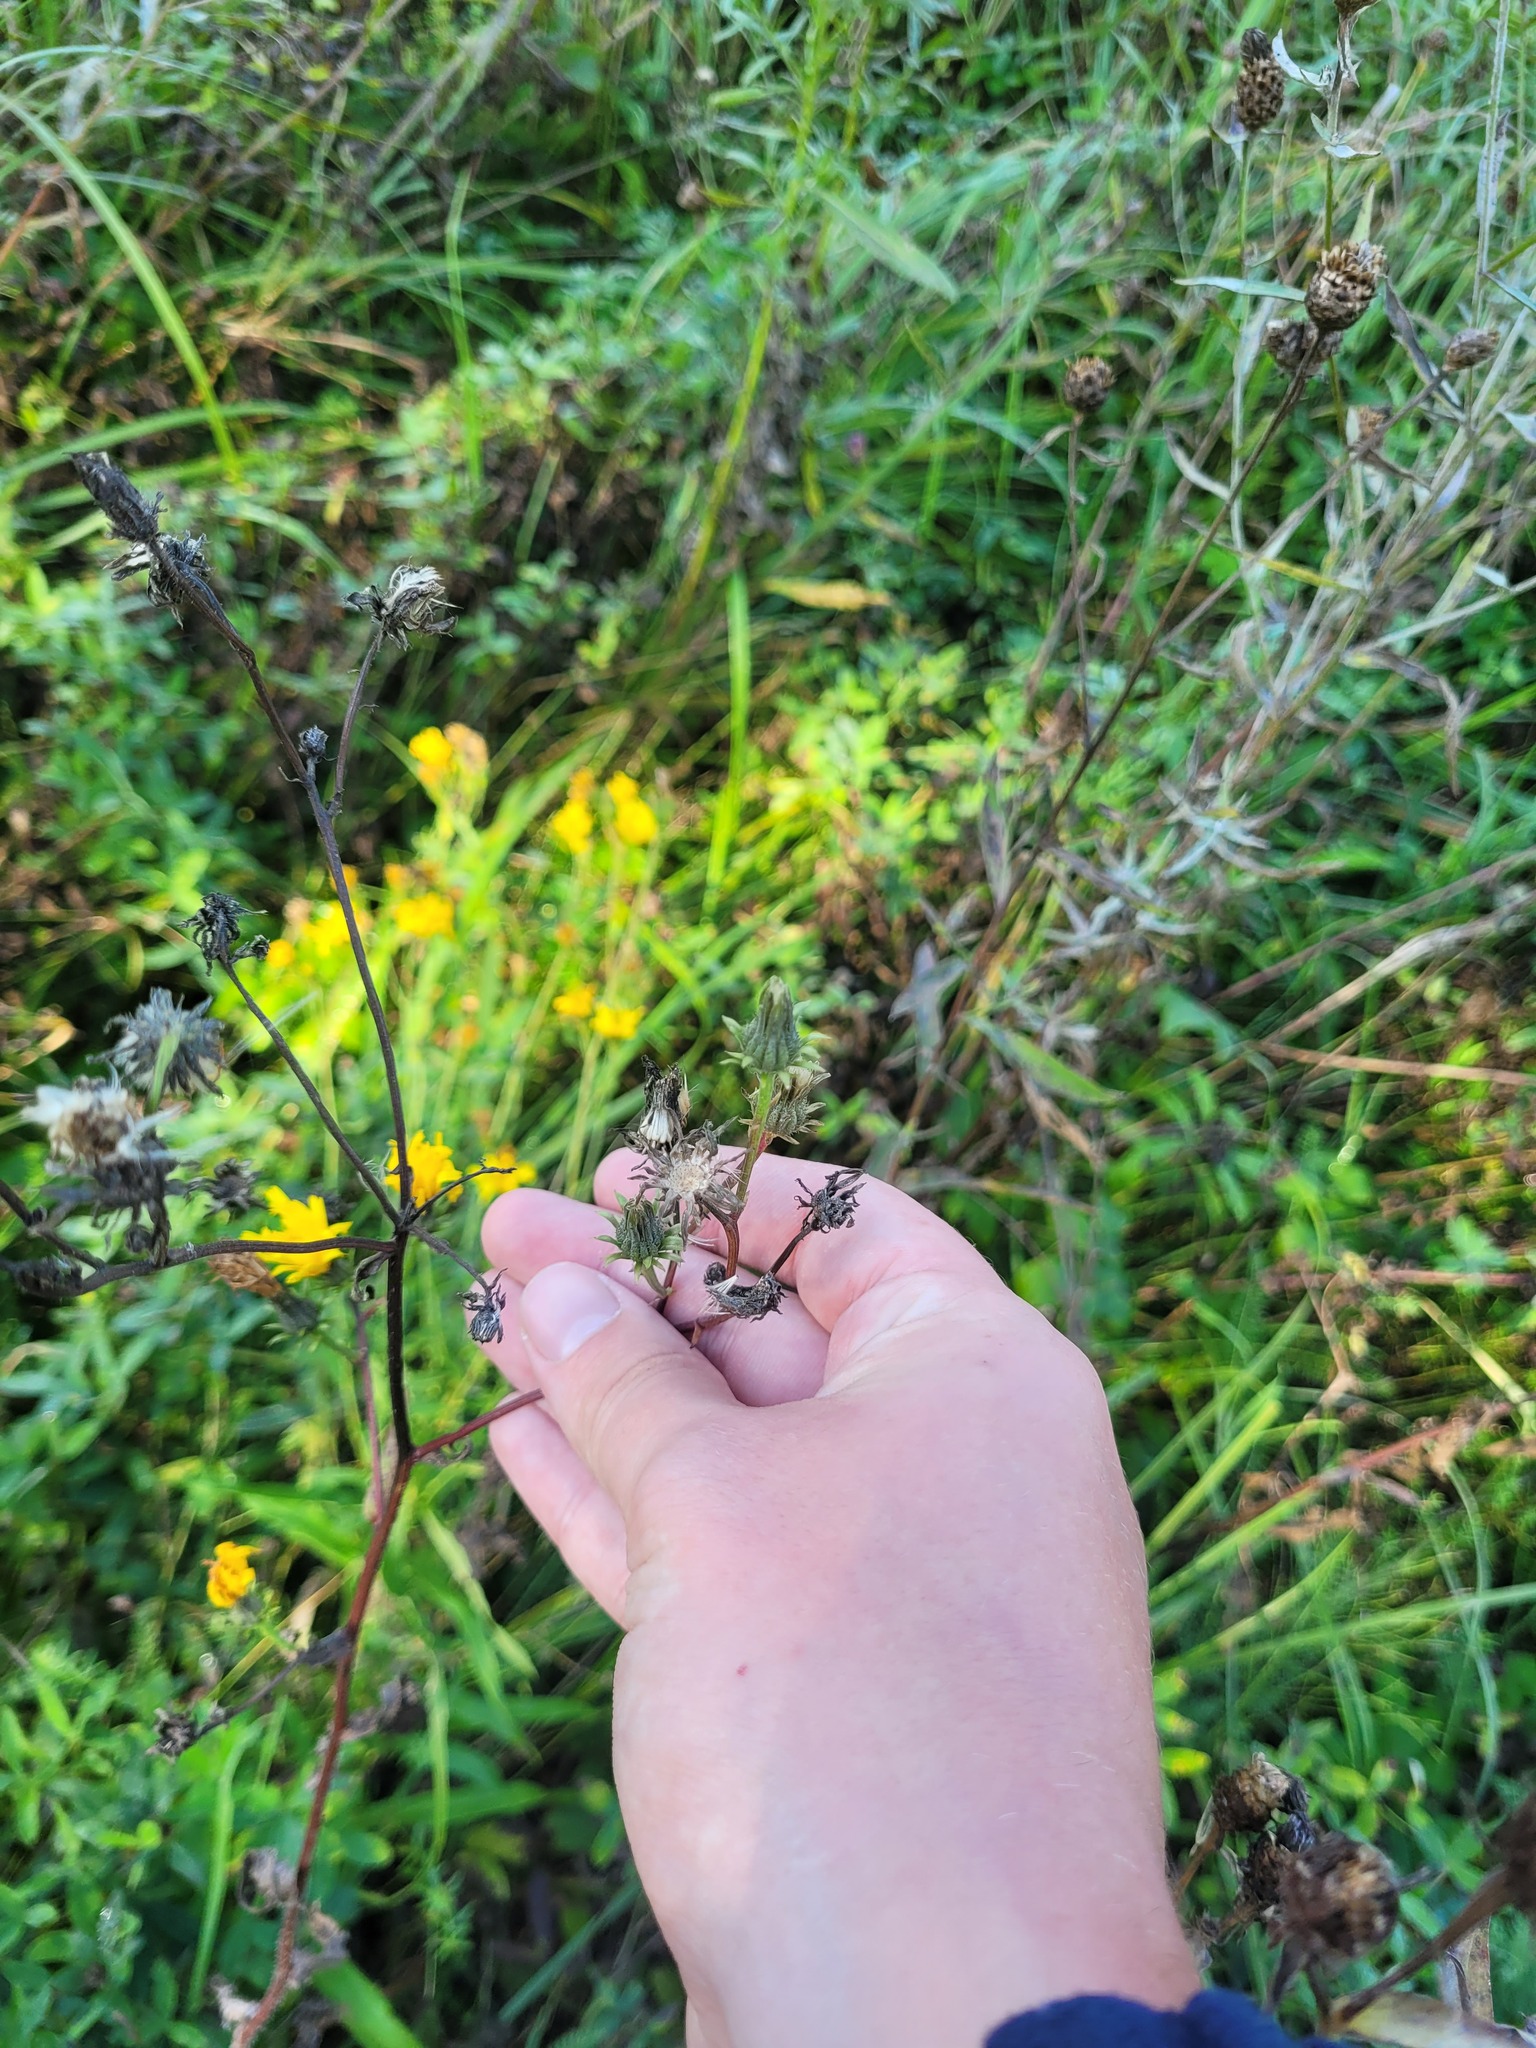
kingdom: Plantae
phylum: Tracheophyta
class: Magnoliopsida
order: Asterales
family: Asteraceae
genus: Picris
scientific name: Picris hieracioides
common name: Hawkweed oxtongue
